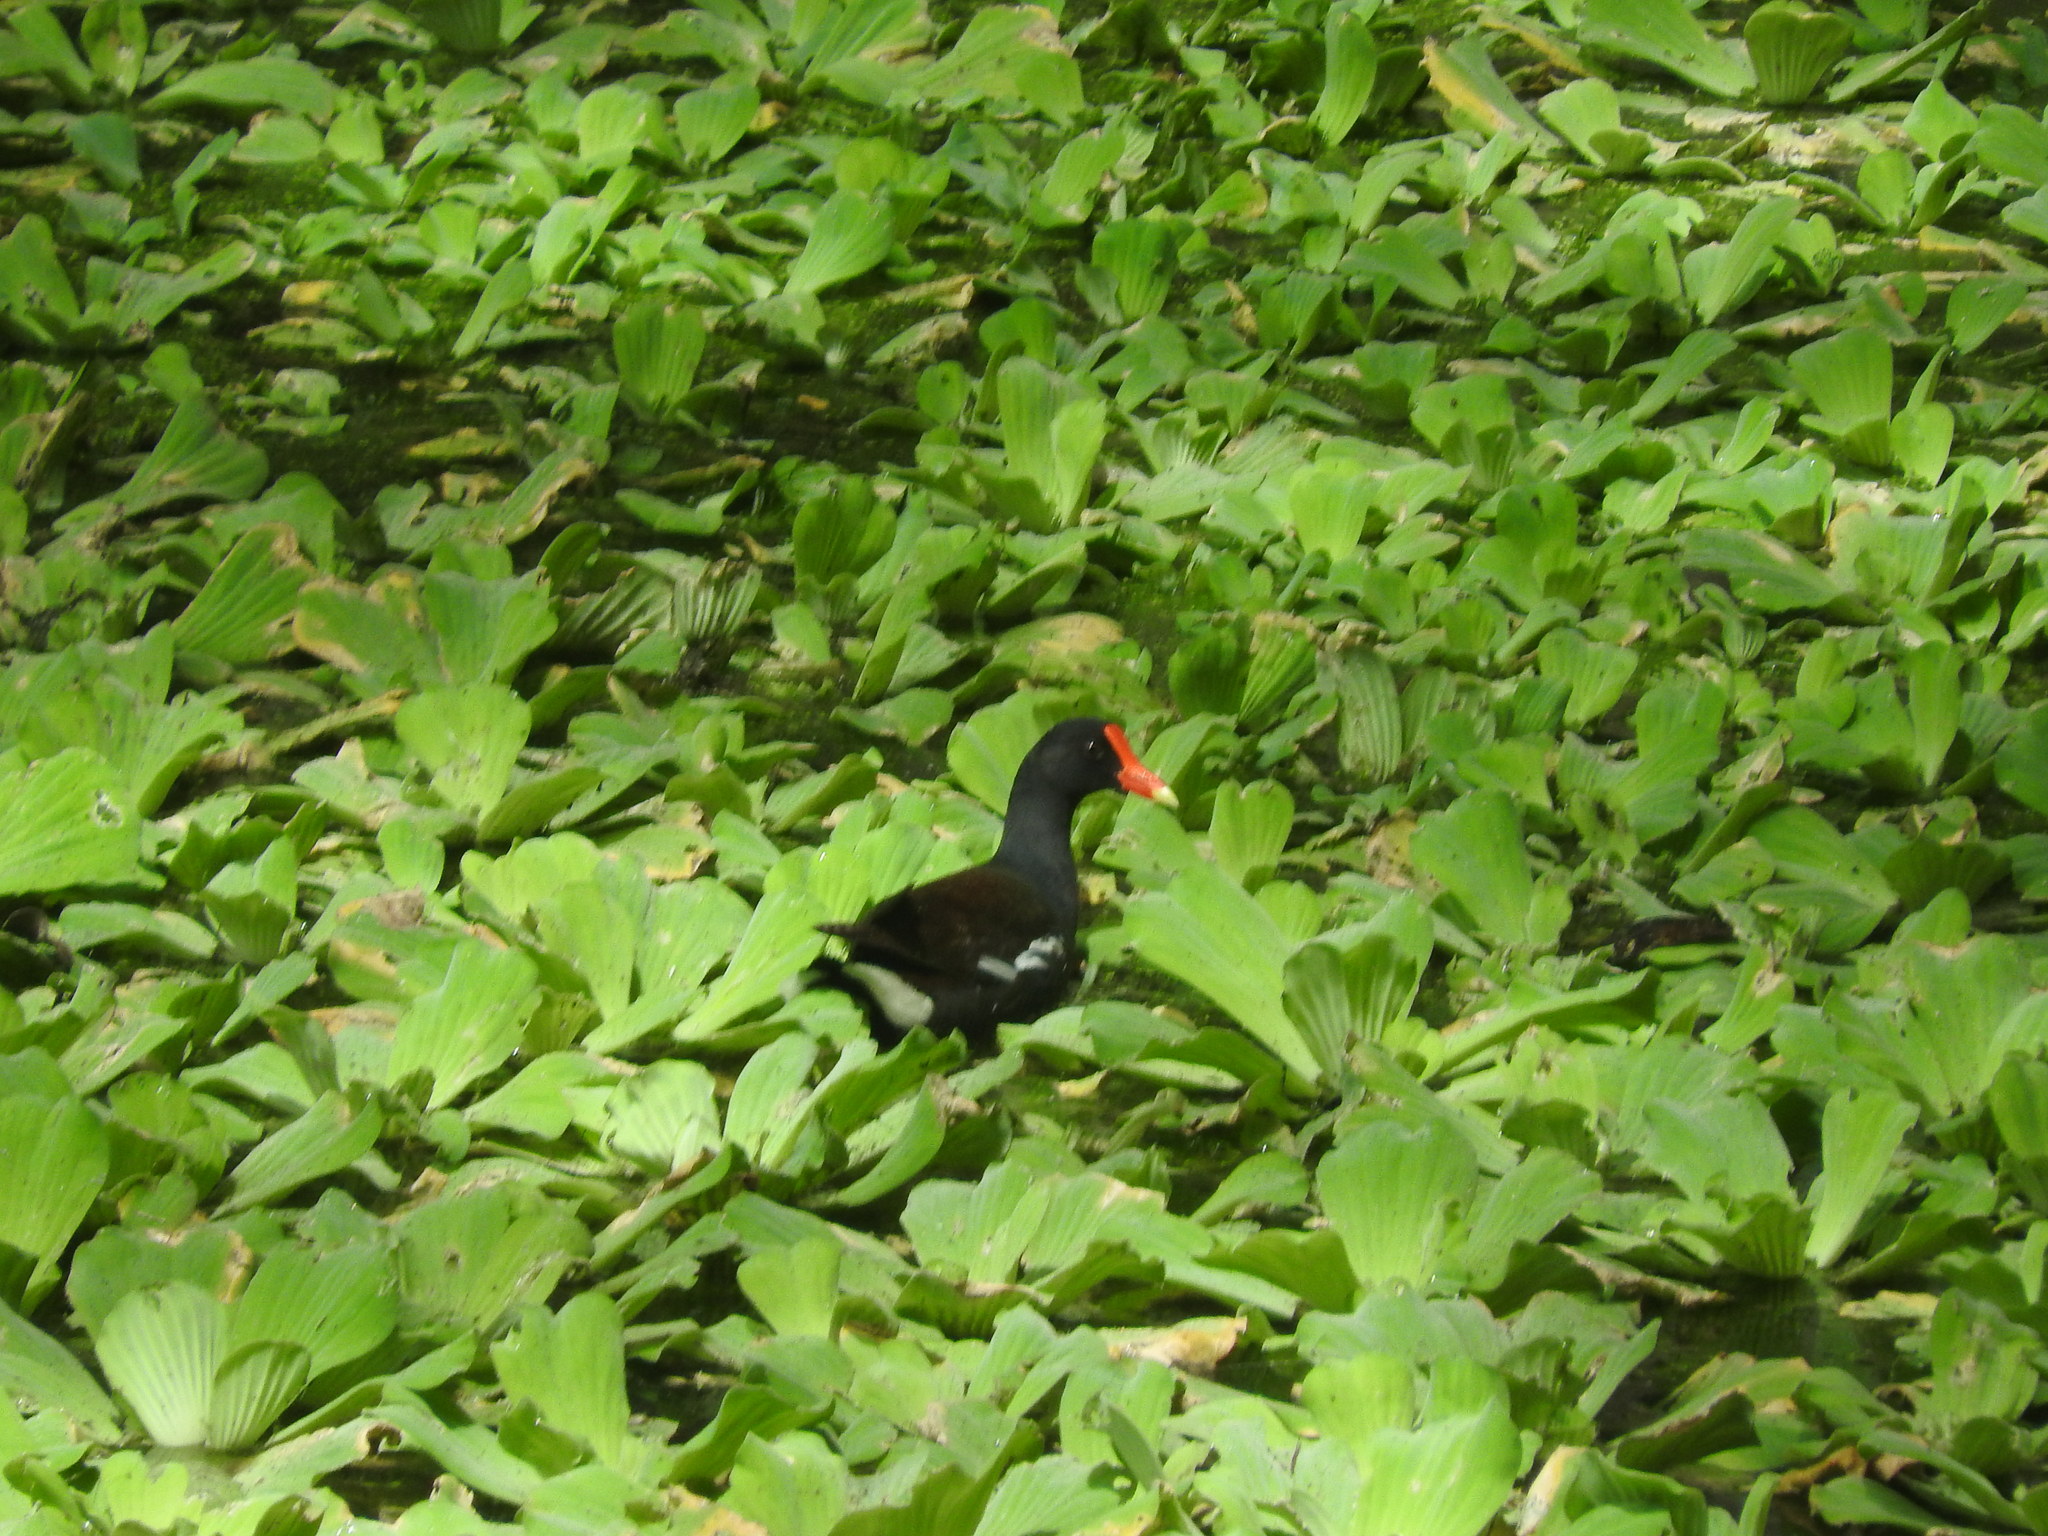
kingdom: Animalia
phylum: Chordata
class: Aves
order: Gruiformes
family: Rallidae
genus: Gallinula
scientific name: Gallinula chloropus
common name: Common moorhen
